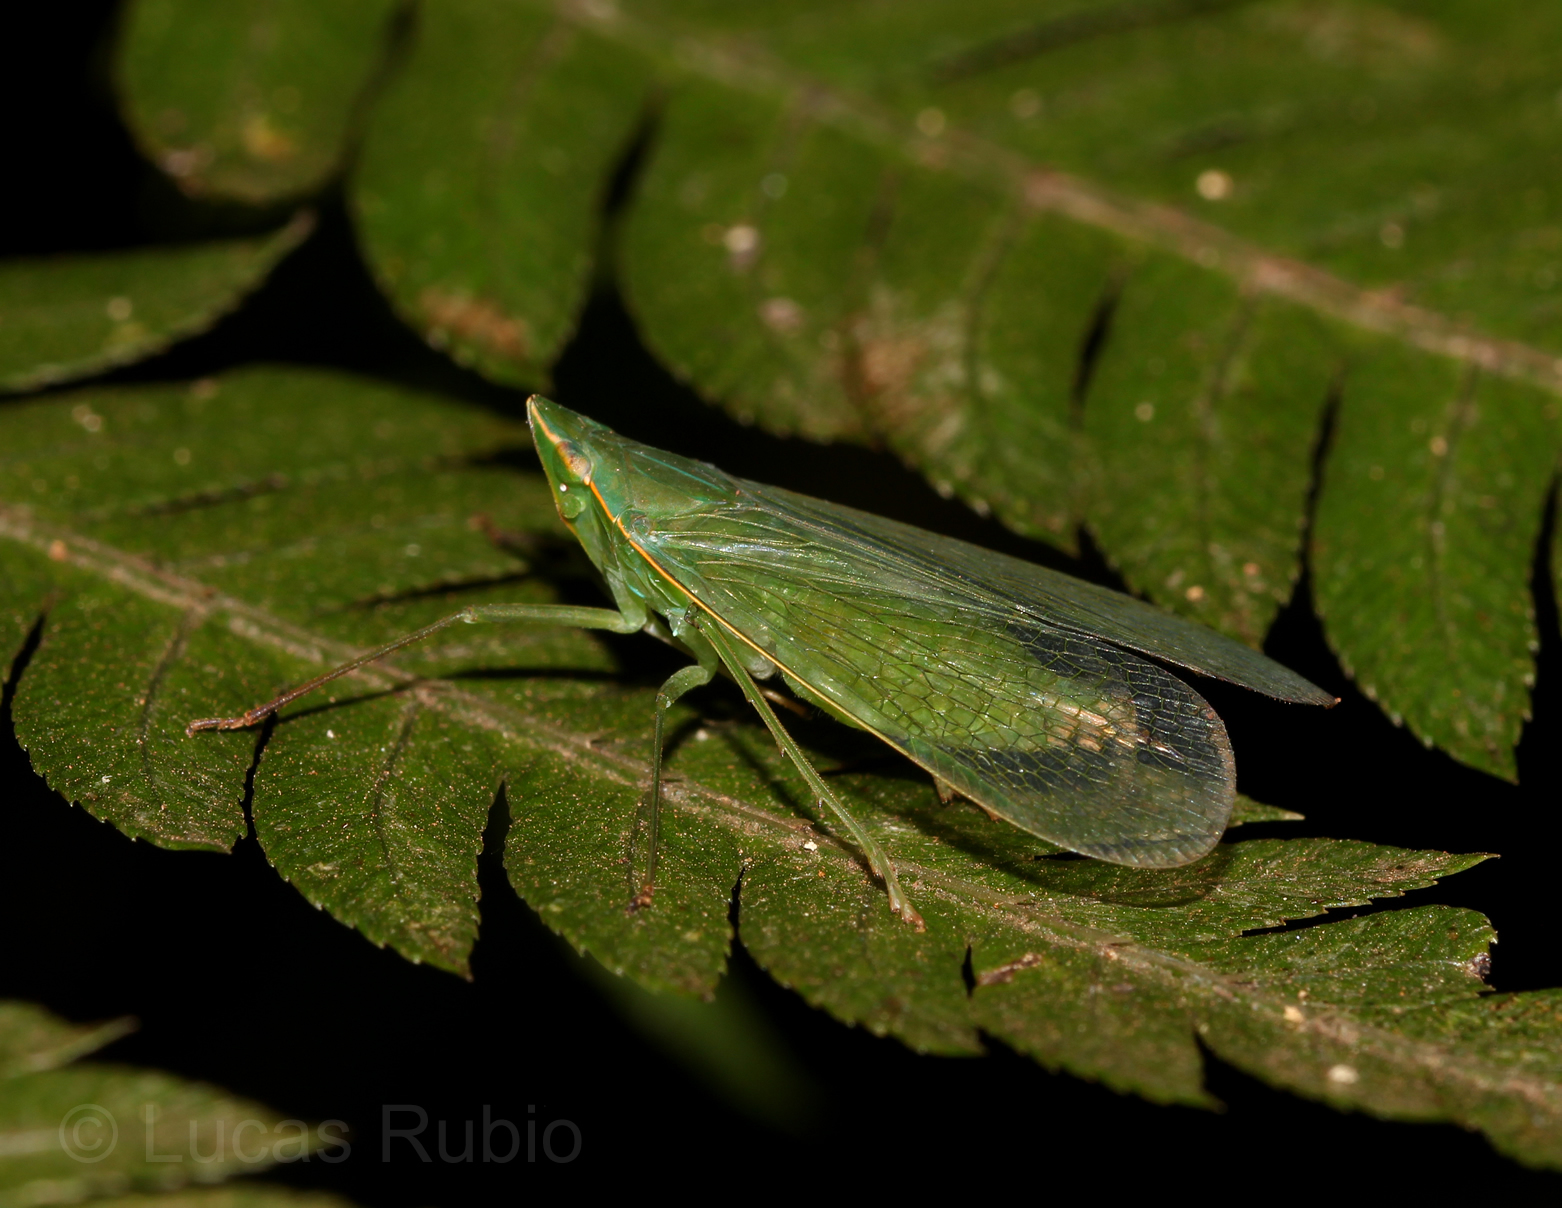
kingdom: Animalia
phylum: Arthropoda
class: Insecta
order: Hemiptera
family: Dictyopharidae
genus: Pteroplegma
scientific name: Pteroplegma jacobania
